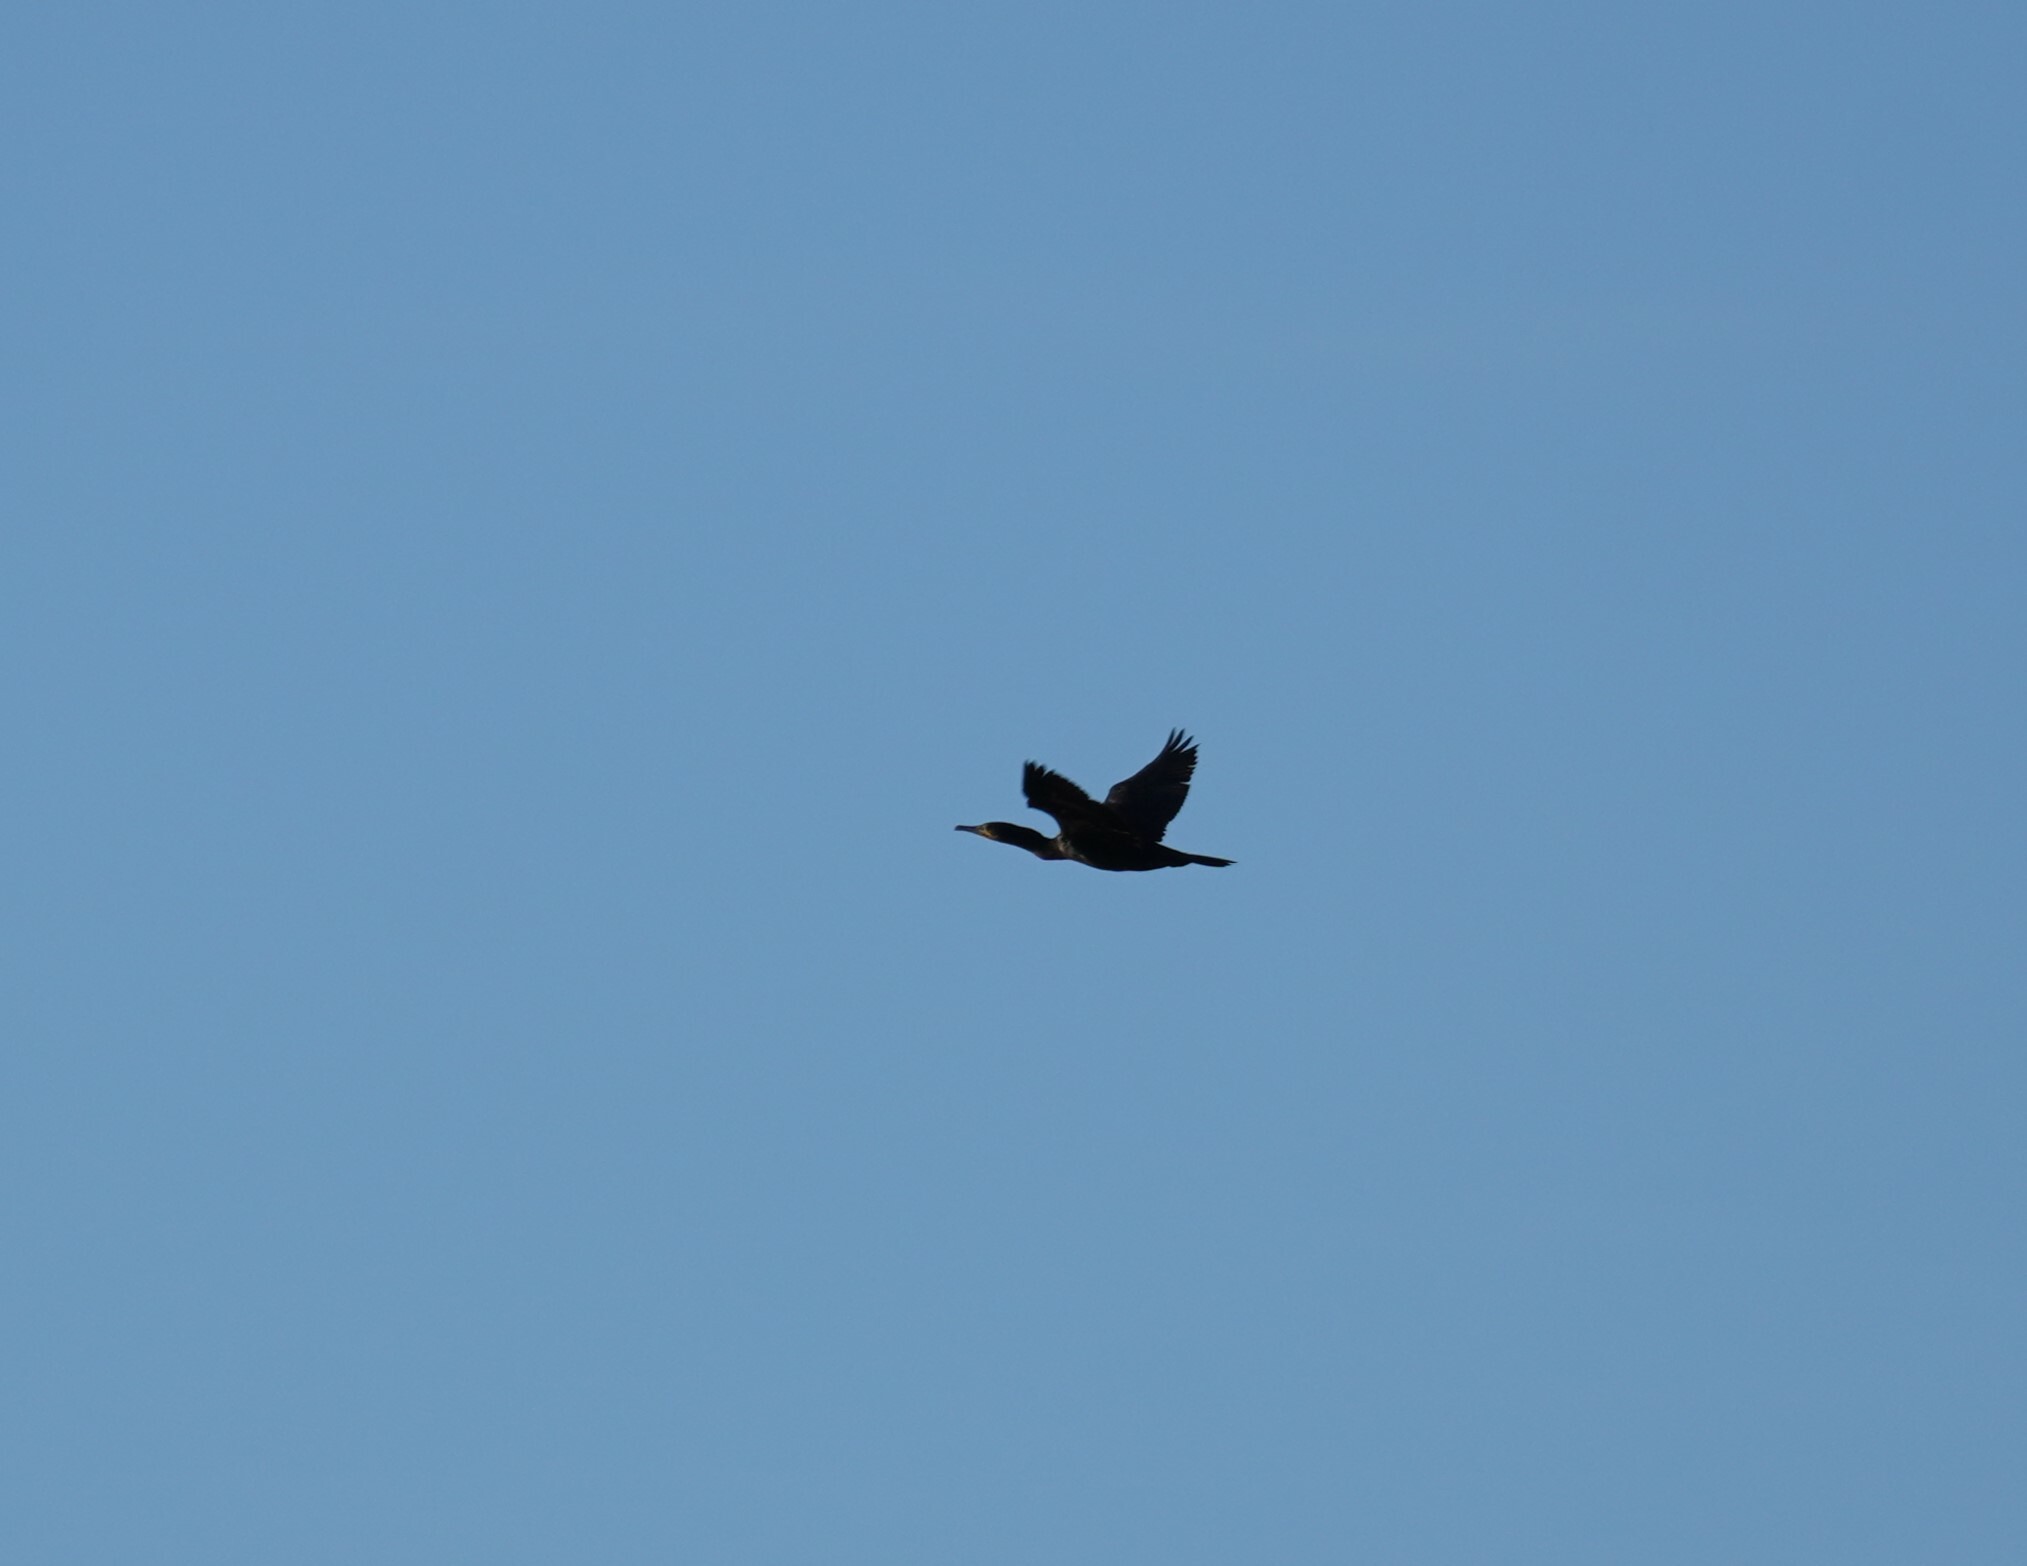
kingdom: Animalia
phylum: Chordata
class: Aves
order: Suliformes
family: Phalacrocoracidae
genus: Phalacrocorax
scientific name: Phalacrocorax carbo
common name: Great cormorant
